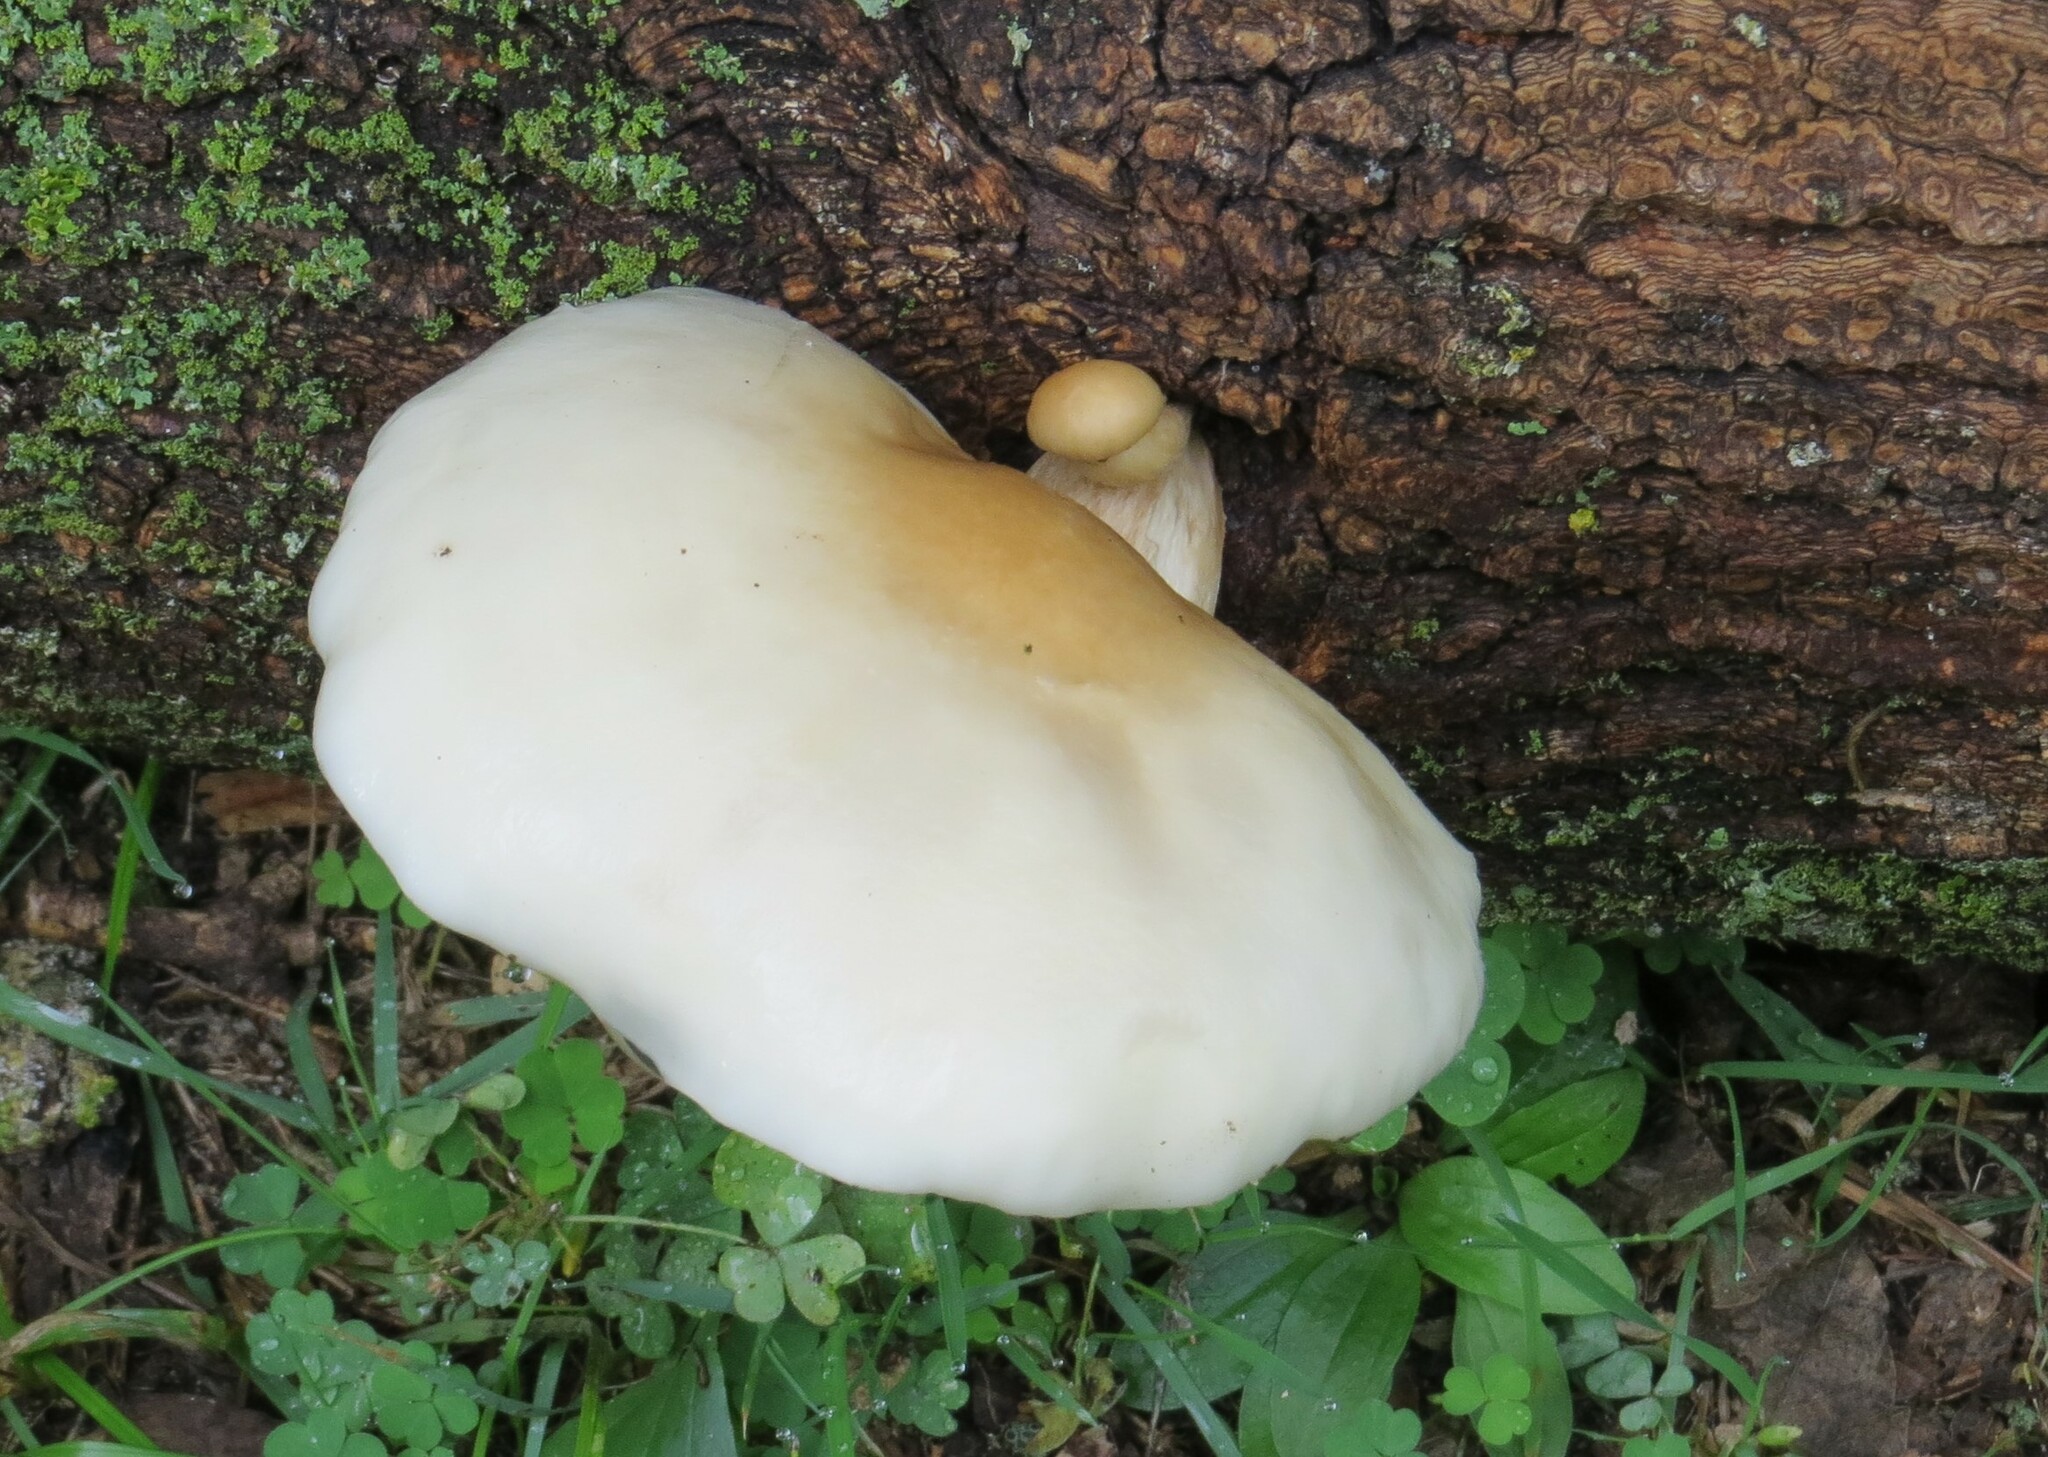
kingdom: Fungi
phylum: Basidiomycota
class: Agaricomycetes
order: Agaricales
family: Lyophyllaceae
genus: Hypsizygus
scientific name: Hypsizygus ulmarius
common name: Elm leech
